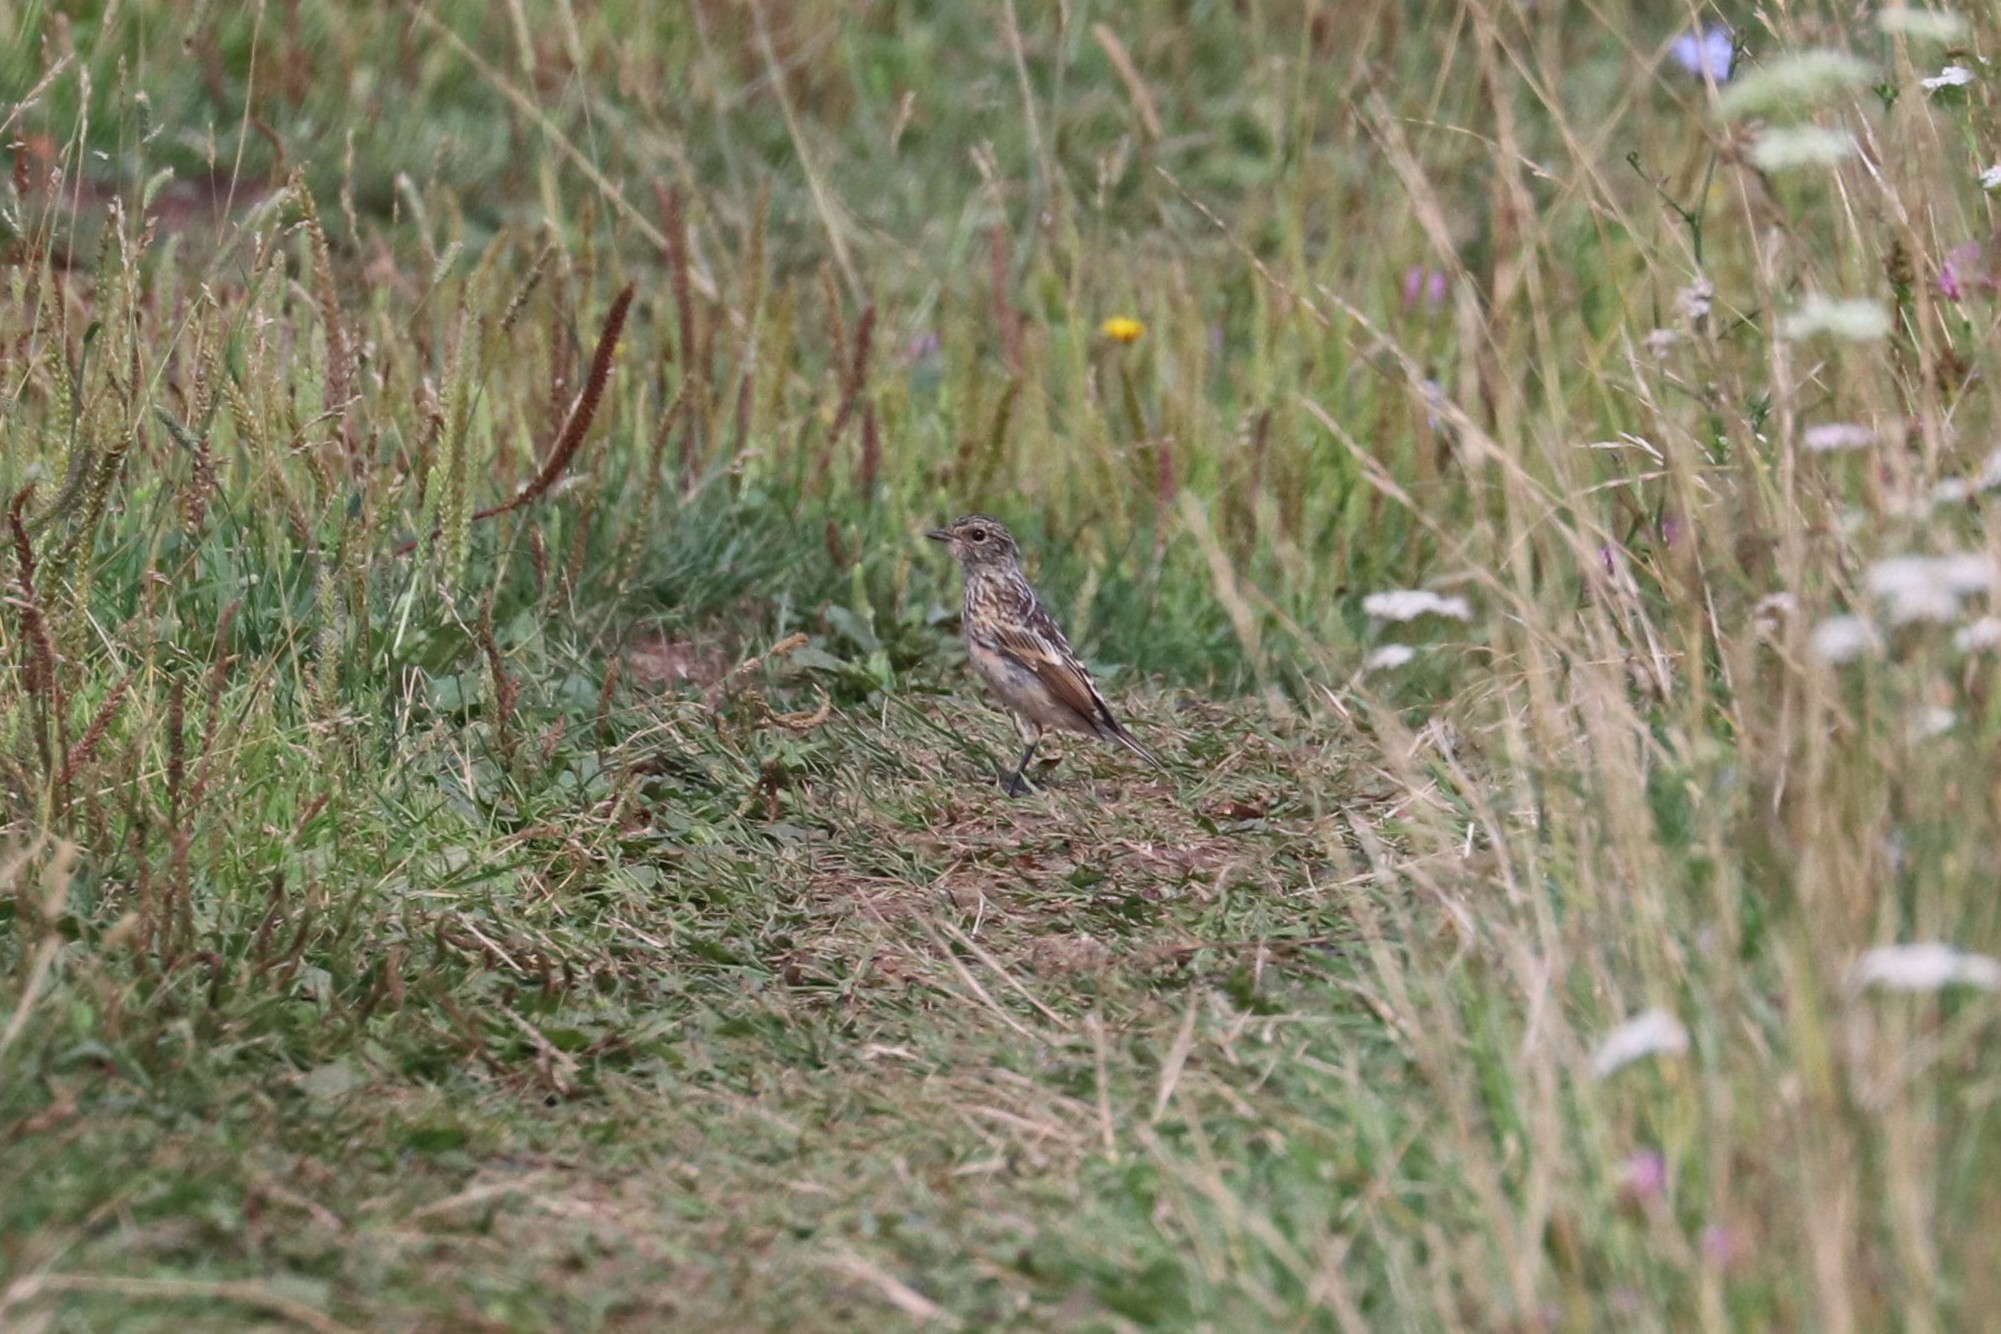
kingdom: Animalia
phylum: Chordata
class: Aves
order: Passeriformes
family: Muscicapidae
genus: Saxicola
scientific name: Saxicola maurus
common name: Siberian stonechat
